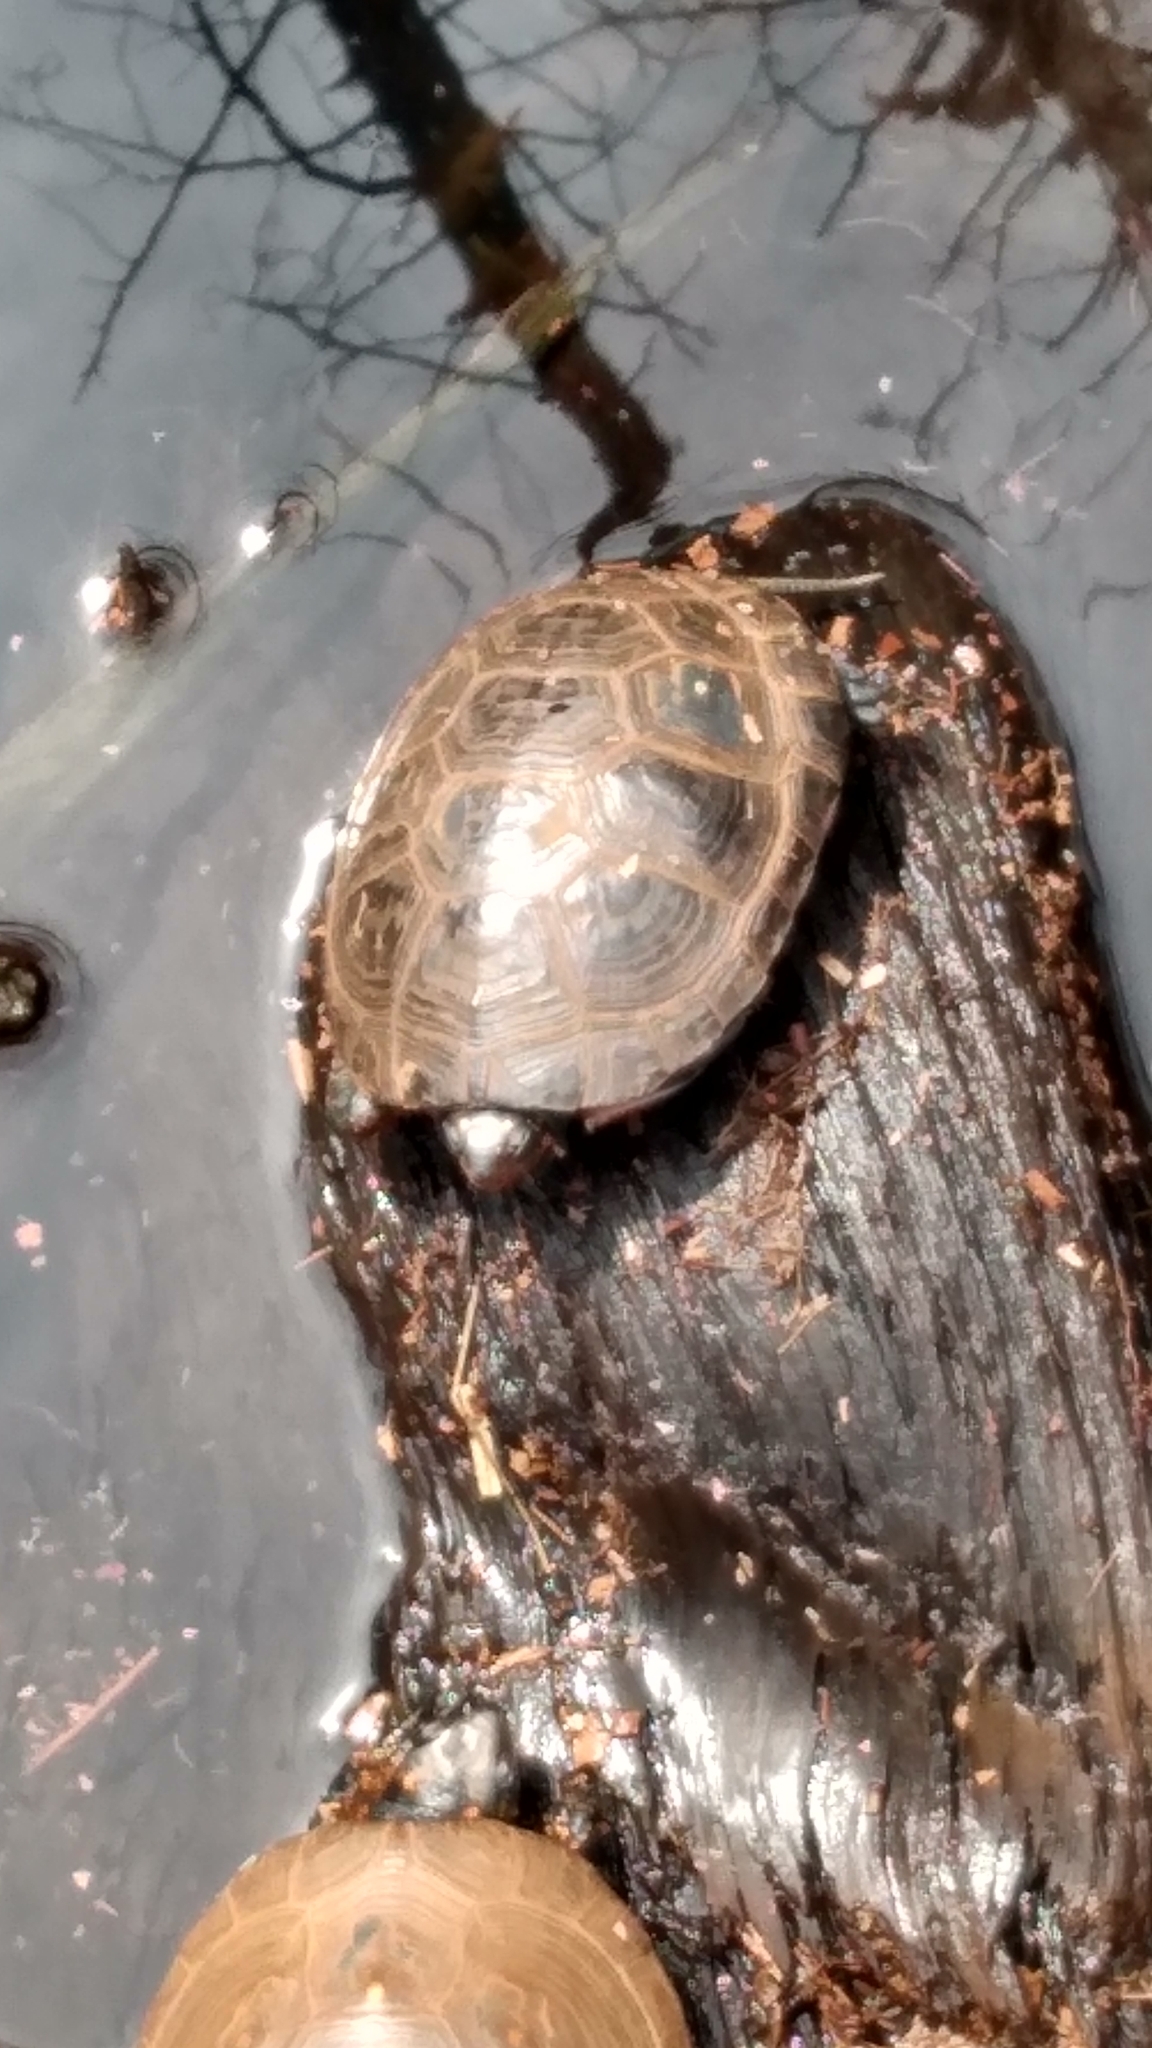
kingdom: Animalia
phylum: Chordata
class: Testudines
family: Emydidae
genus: Clemmys
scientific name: Clemmys guttata
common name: Spotted turtle
